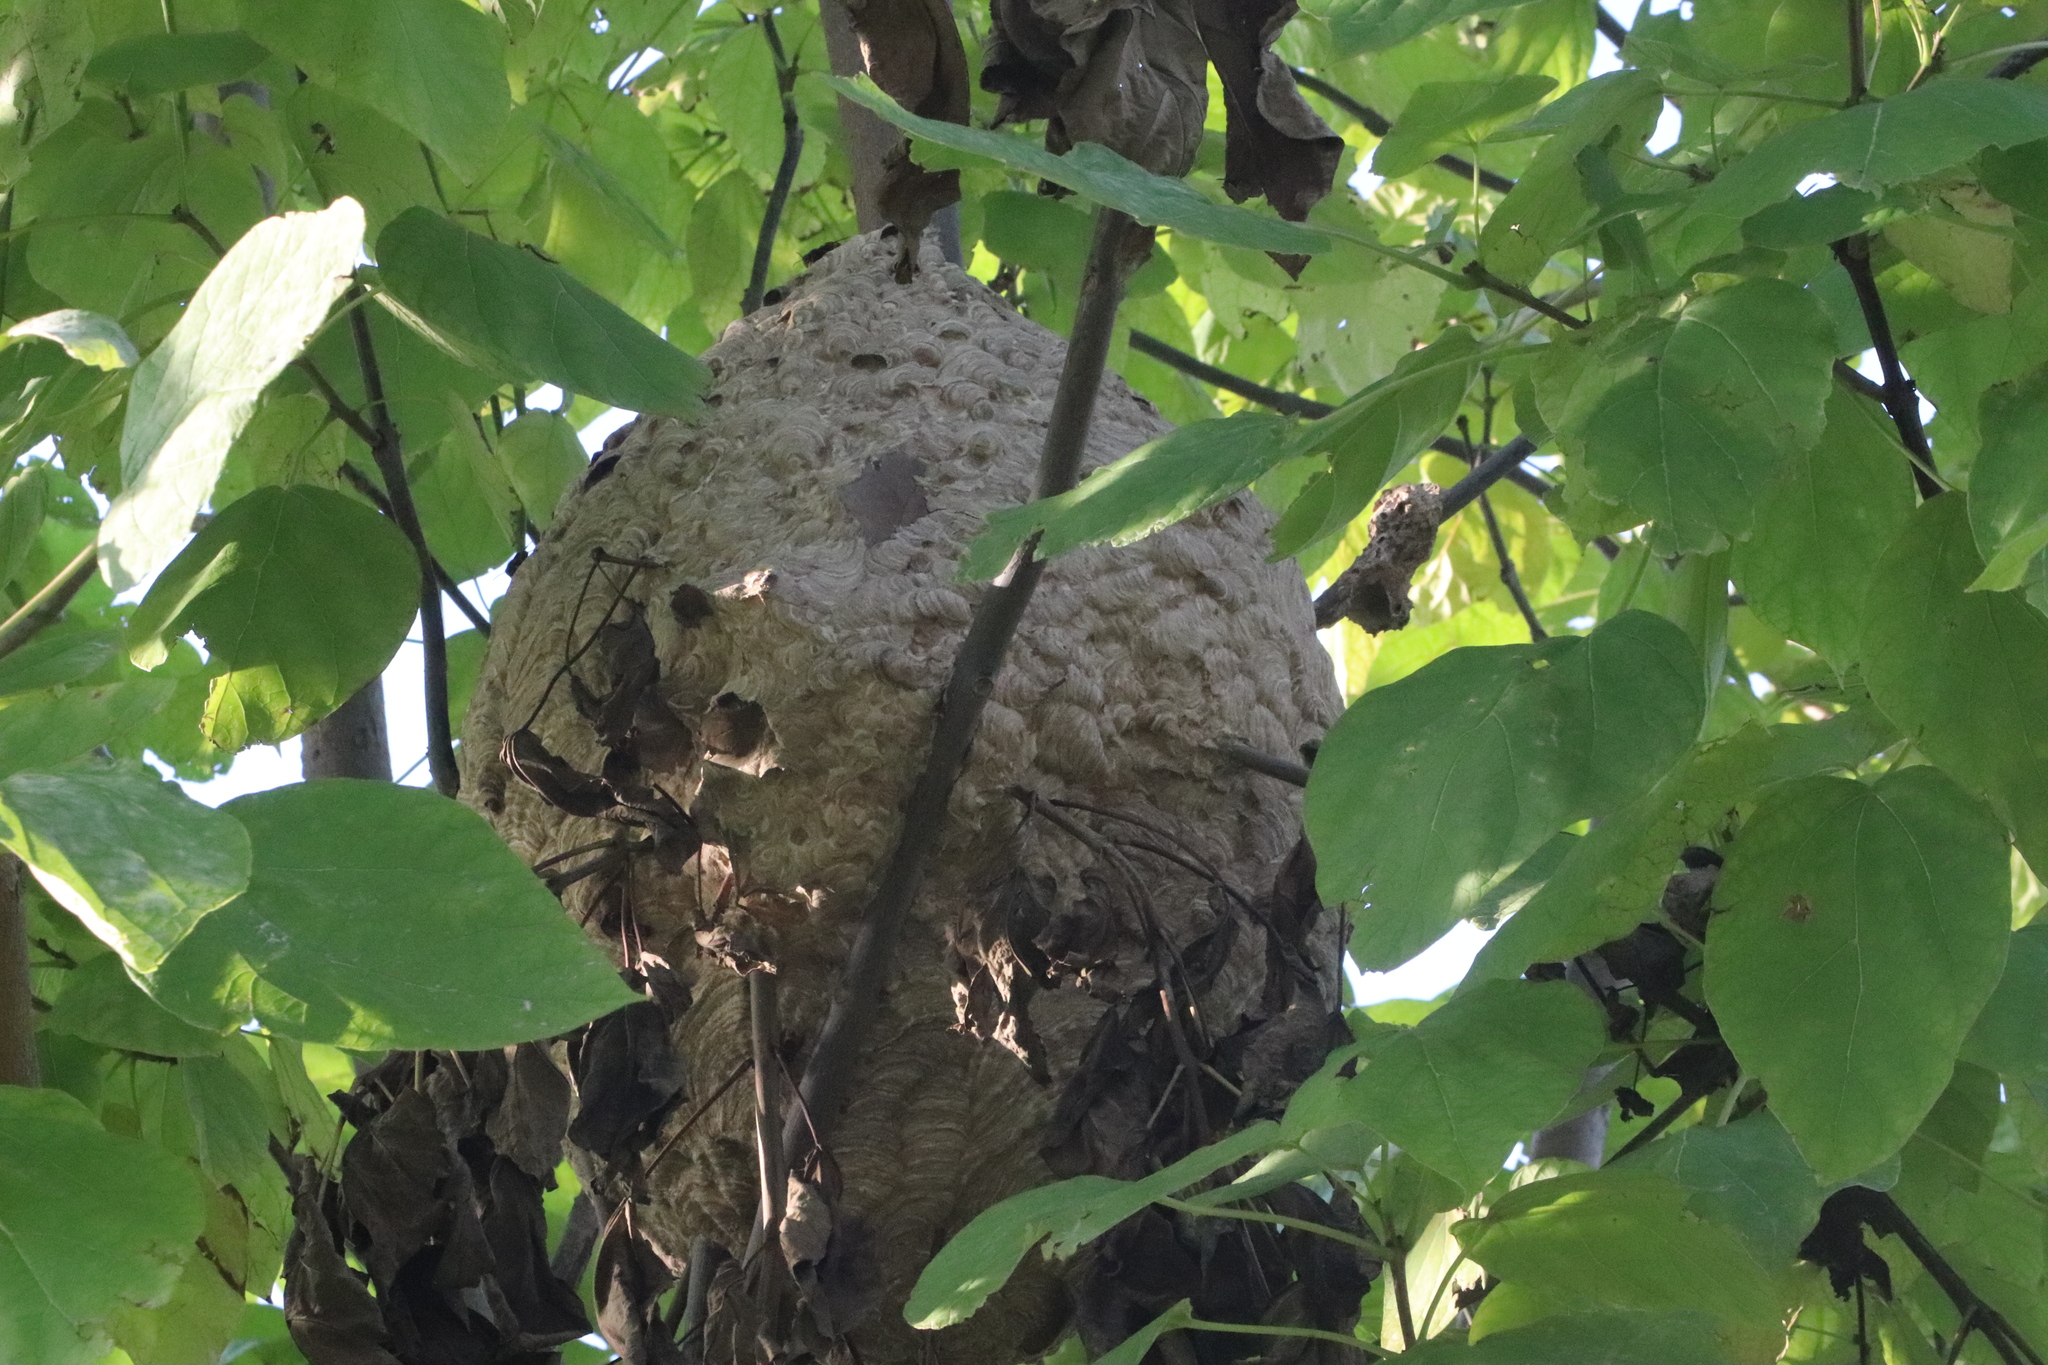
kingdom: Animalia
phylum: Arthropoda
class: Insecta
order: Hymenoptera
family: Vespidae
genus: Vespa
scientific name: Vespa velutina
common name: Asian hornet
